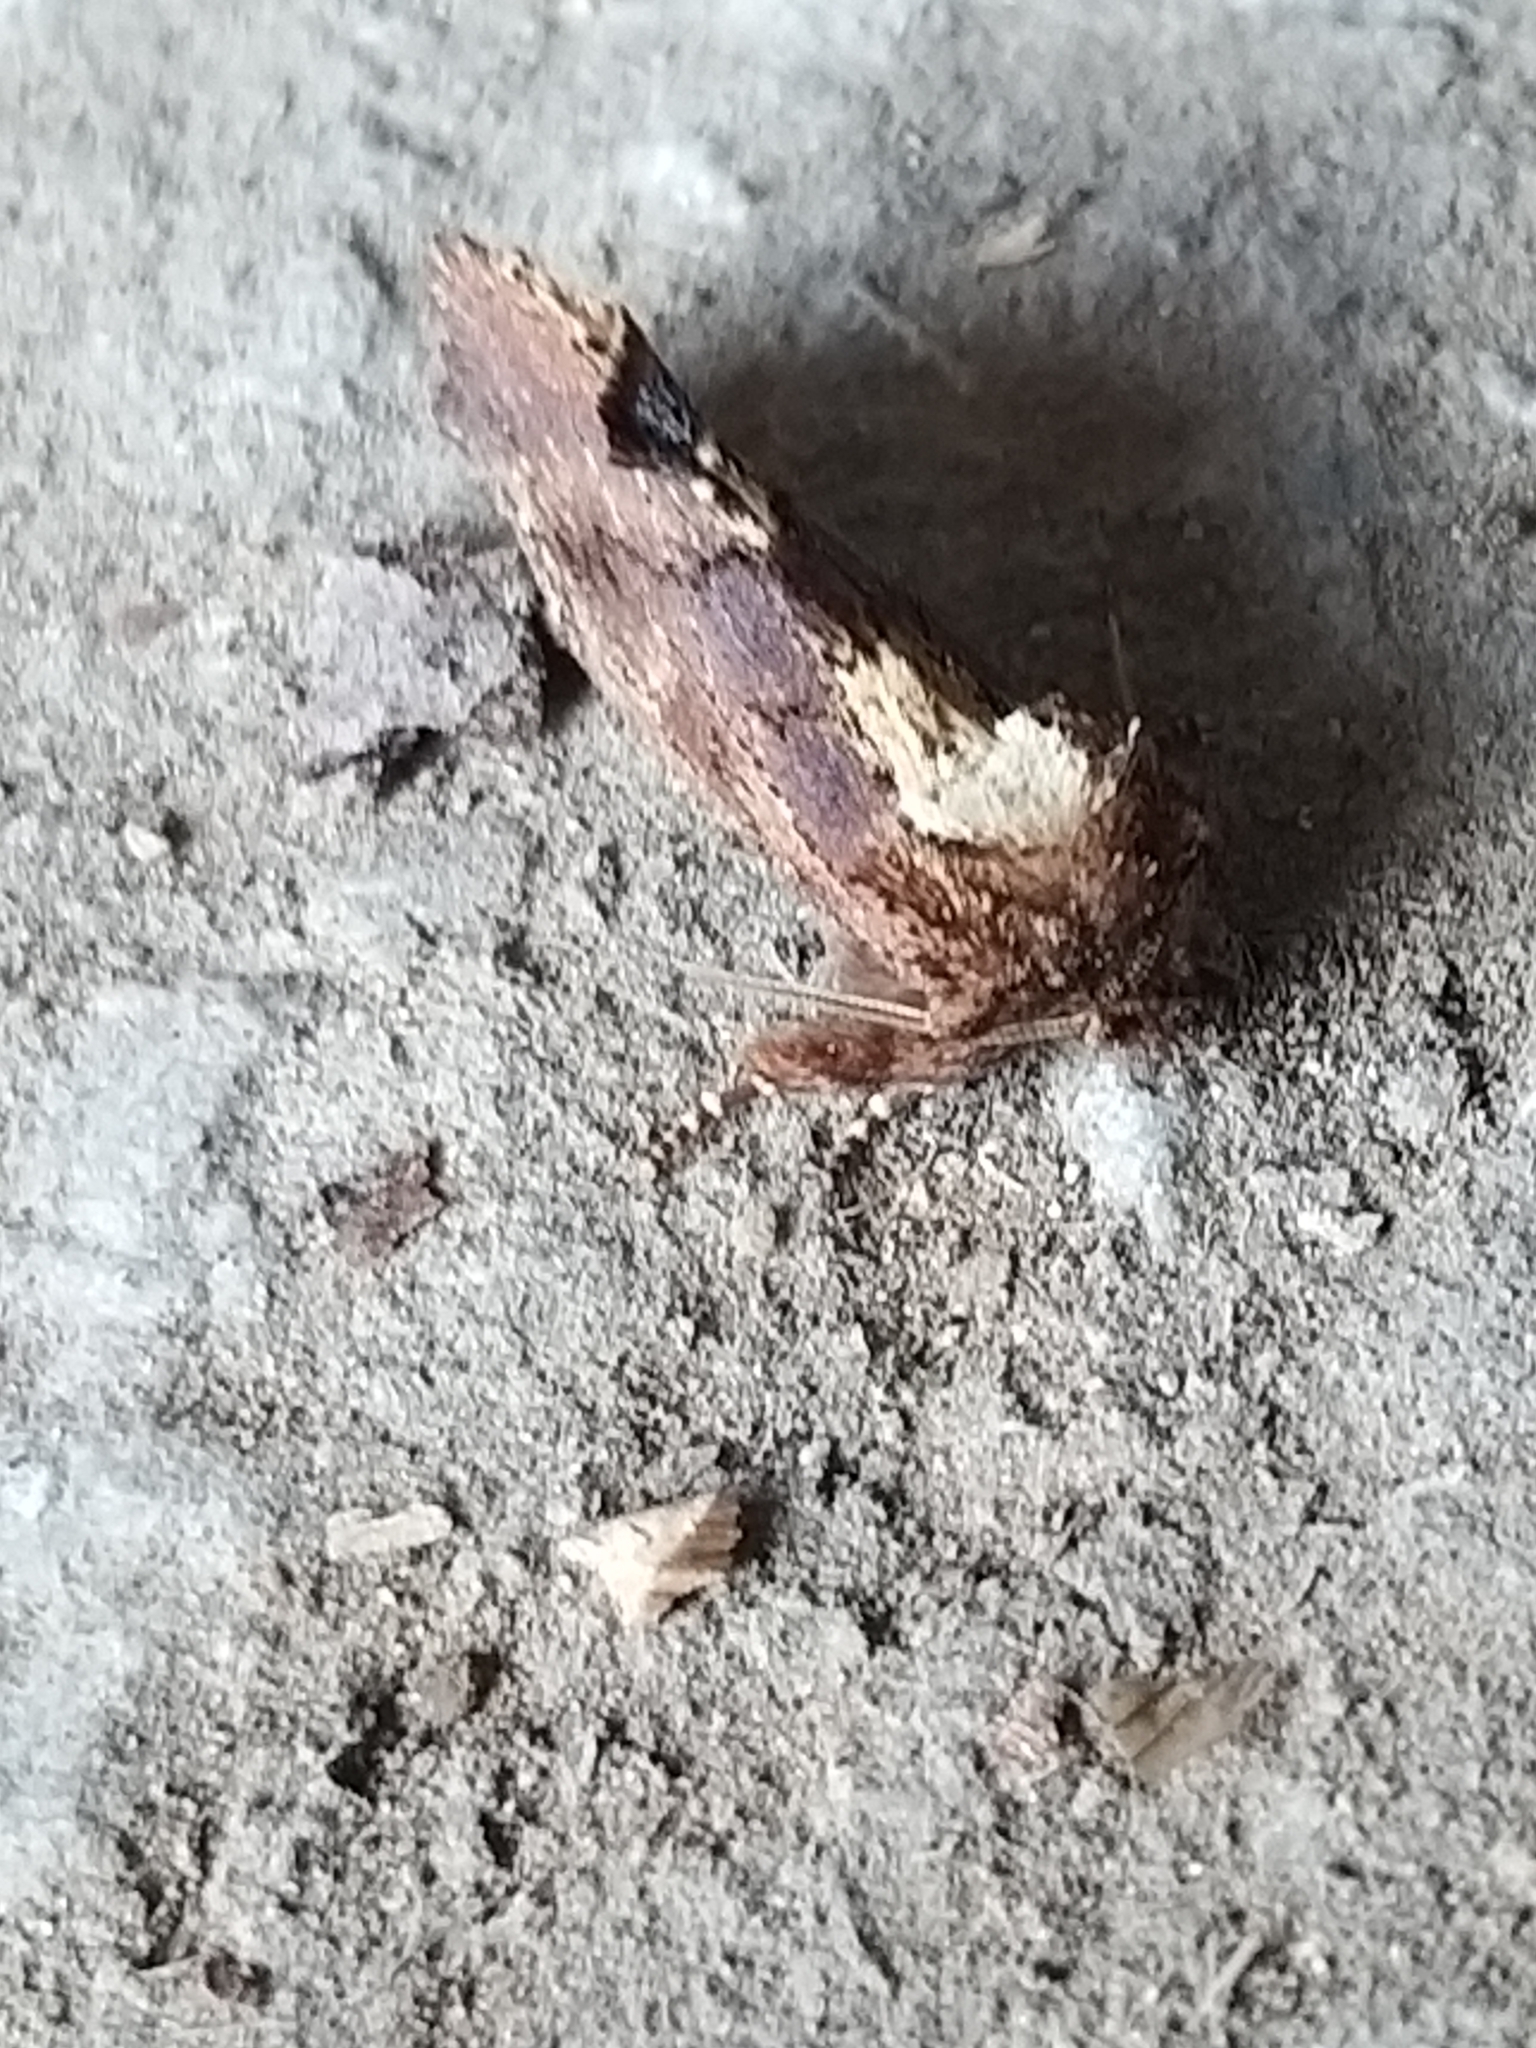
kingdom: Animalia
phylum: Arthropoda
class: Insecta
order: Lepidoptera
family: Notodontidae
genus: Ptilodon
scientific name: Ptilodon capucina
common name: Coxcomb prominent
